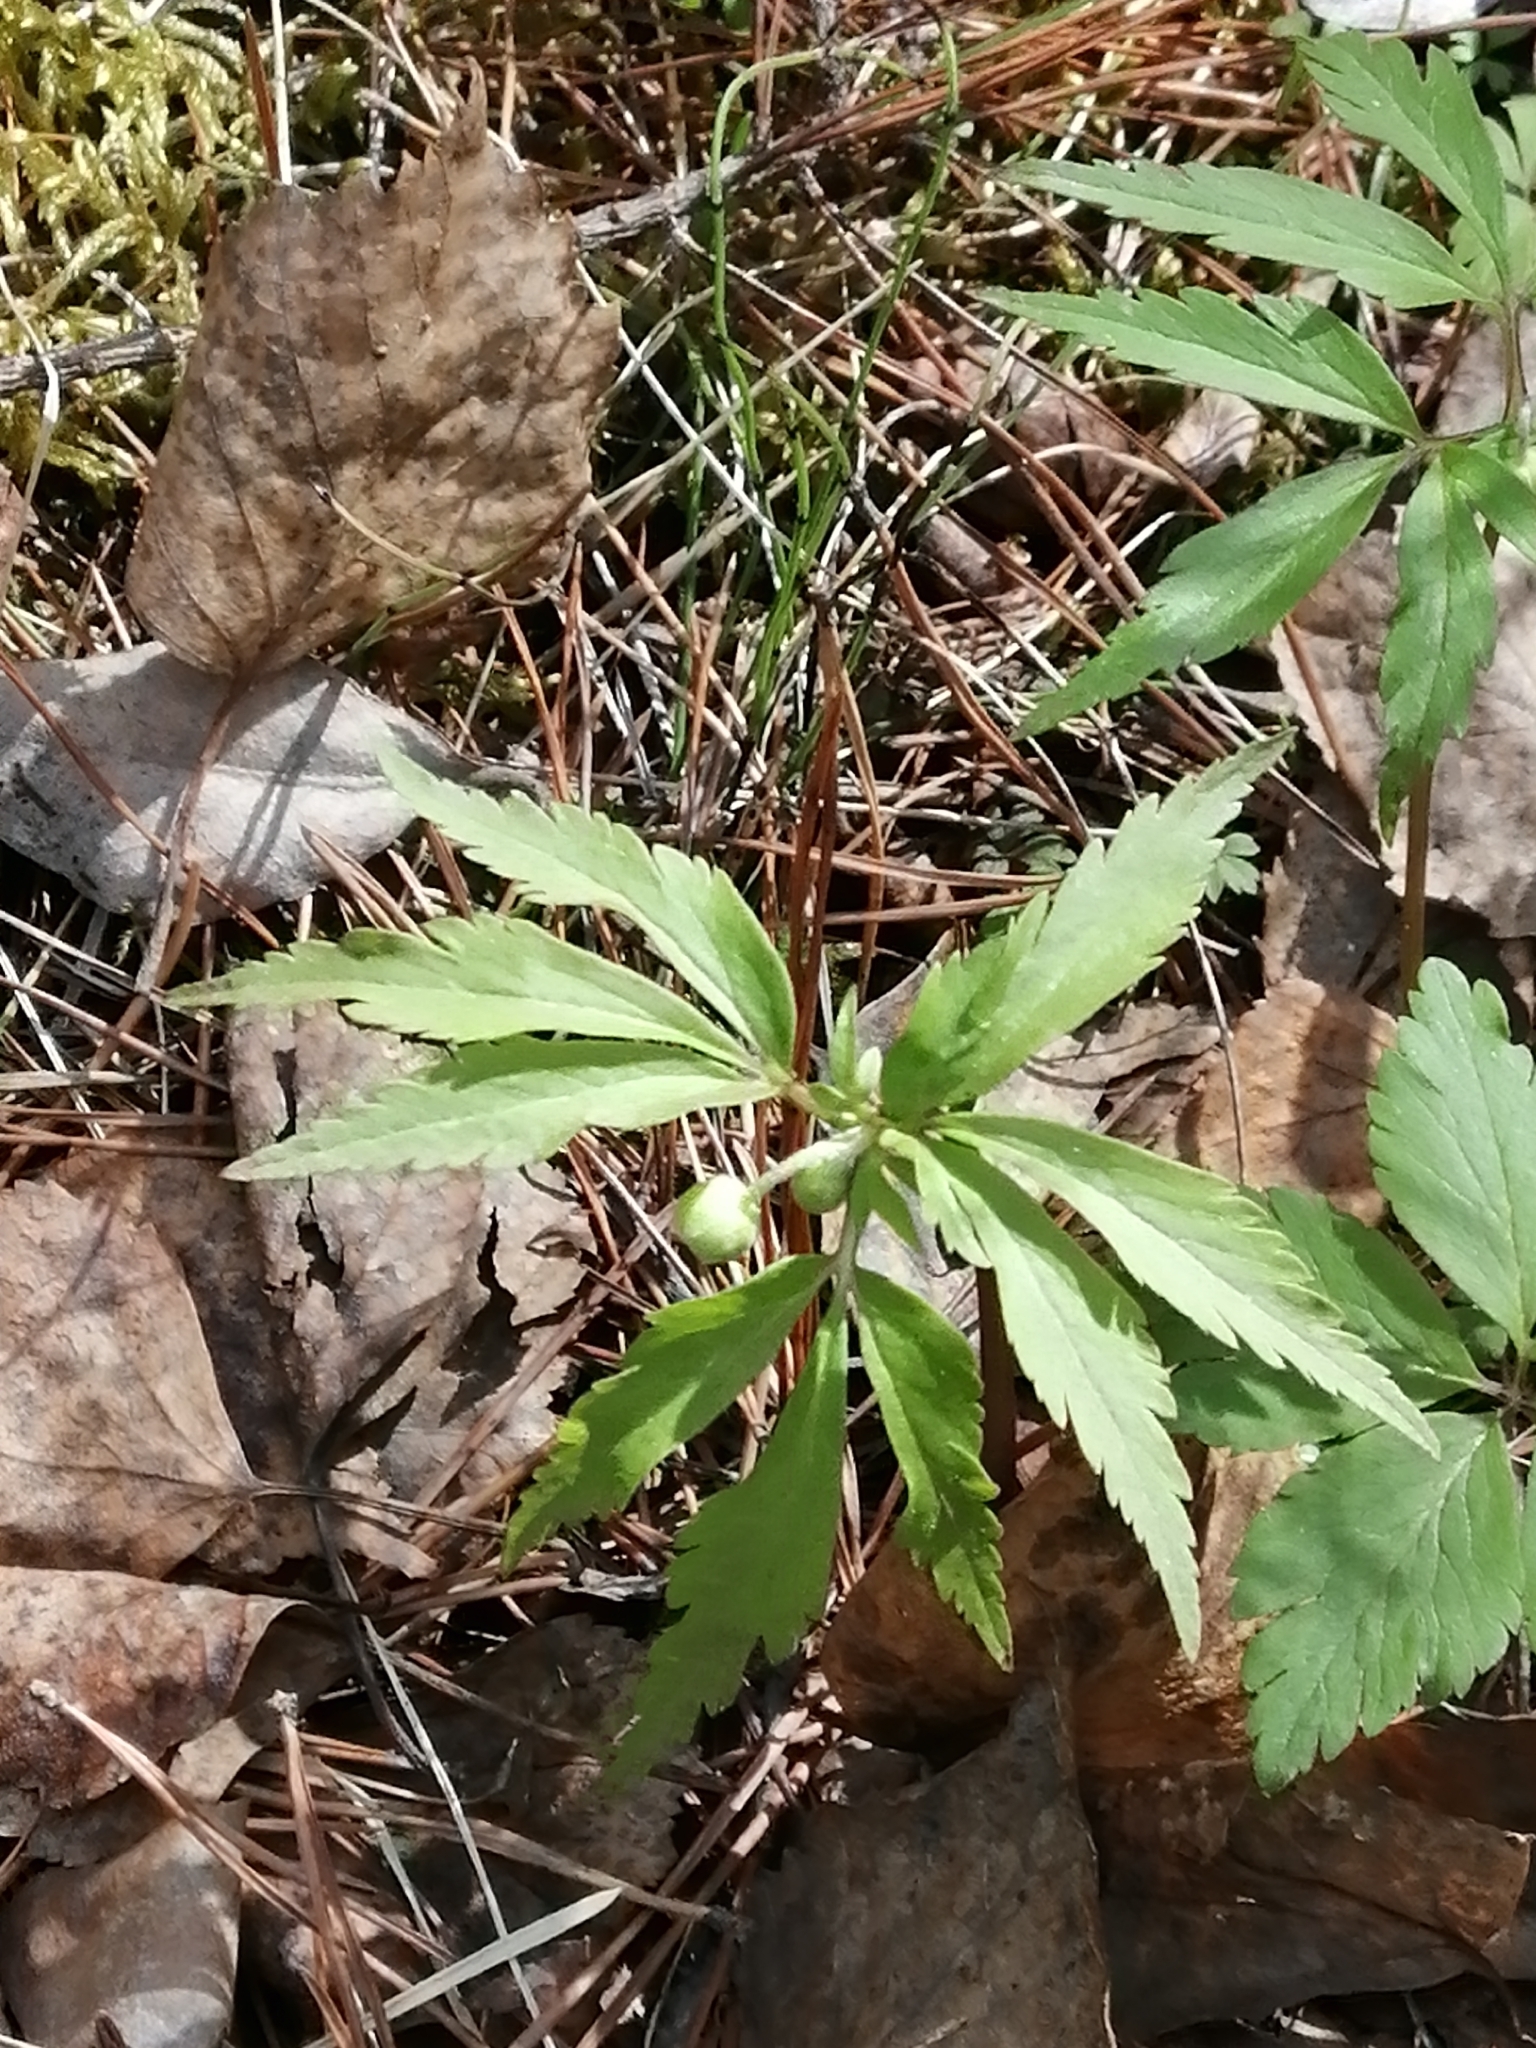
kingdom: Plantae
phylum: Tracheophyta
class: Magnoliopsida
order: Ranunculales
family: Ranunculaceae
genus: Anemone
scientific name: Anemone reflexa
